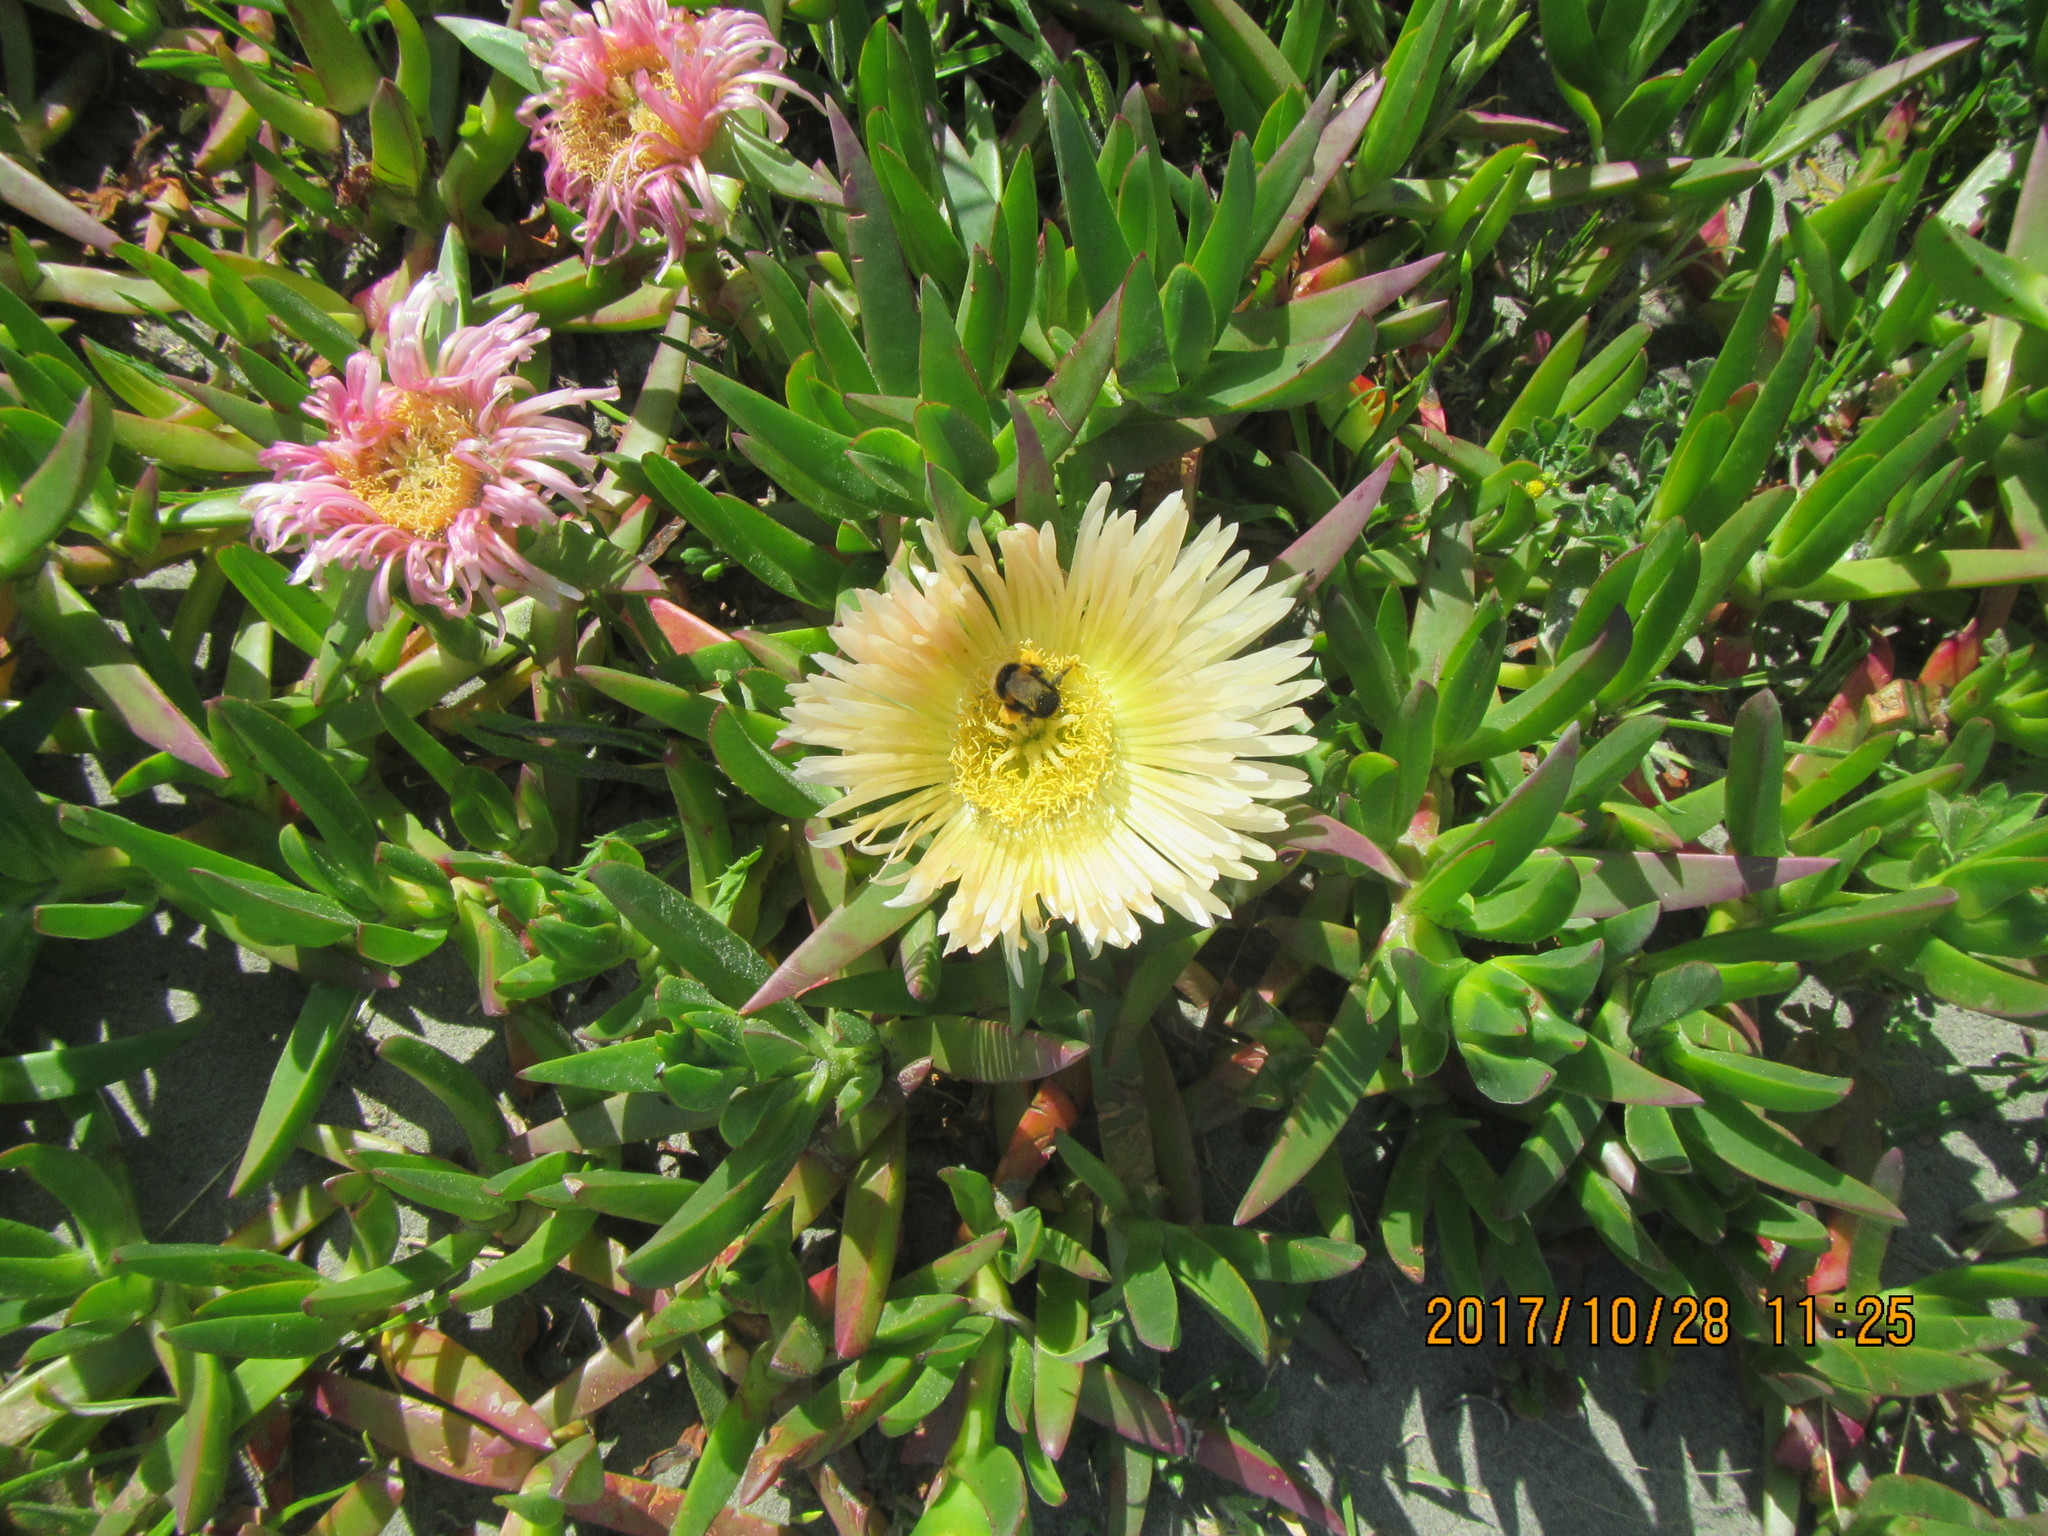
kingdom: Plantae
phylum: Tracheophyta
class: Magnoliopsida
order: Caryophyllales
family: Aizoaceae
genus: Carpobrotus
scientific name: Carpobrotus edulis
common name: Hottentot-fig
